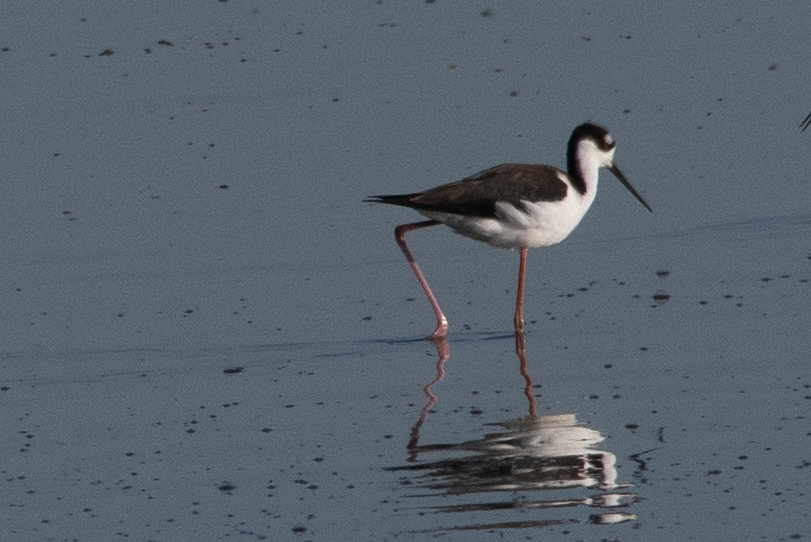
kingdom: Animalia
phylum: Chordata
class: Aves
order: Charadriiformes
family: Recurvirostridae
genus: Himantopus
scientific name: Himantopus mexicanus
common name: Black-necked stilt
